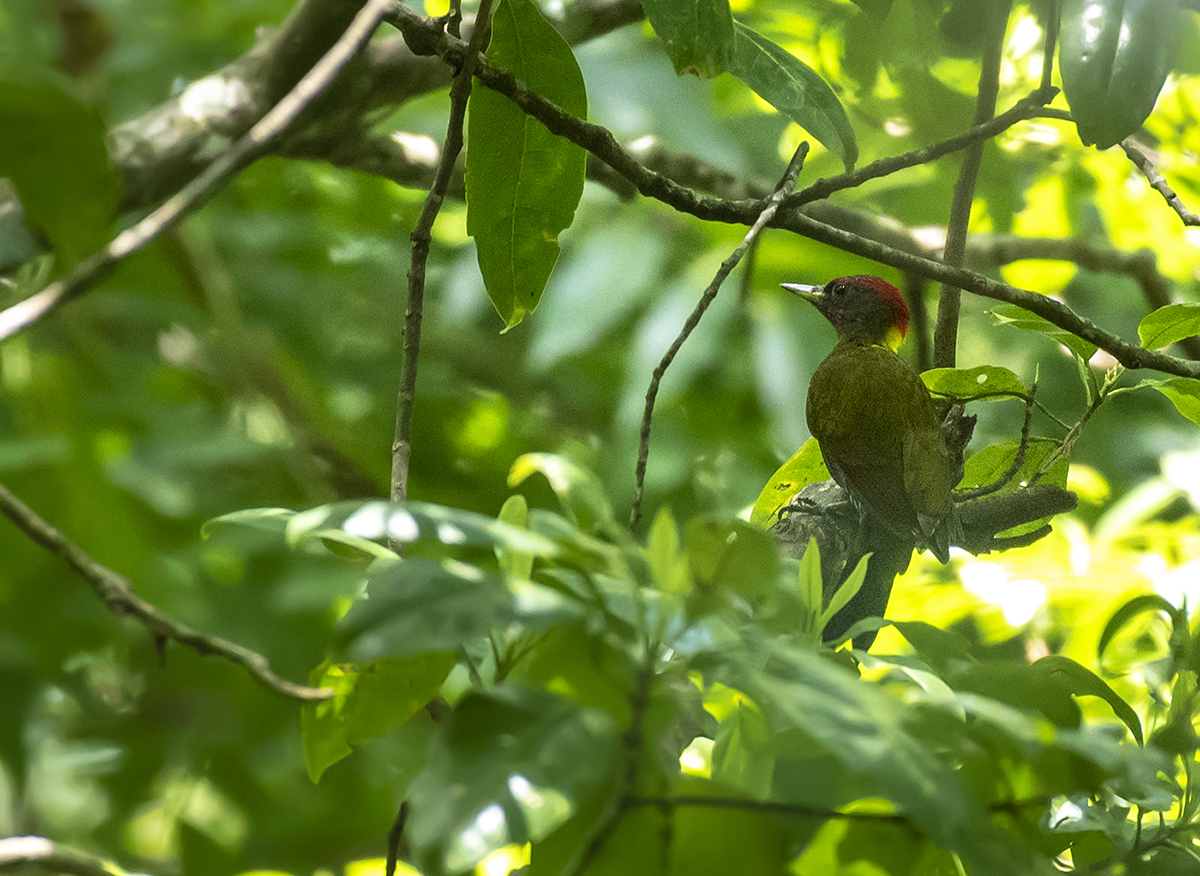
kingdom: Animalia
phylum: Chordata
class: Aves
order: Piciformes
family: Picidae
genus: Picus
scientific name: Picus chlorolophus
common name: Lesser yellownape
